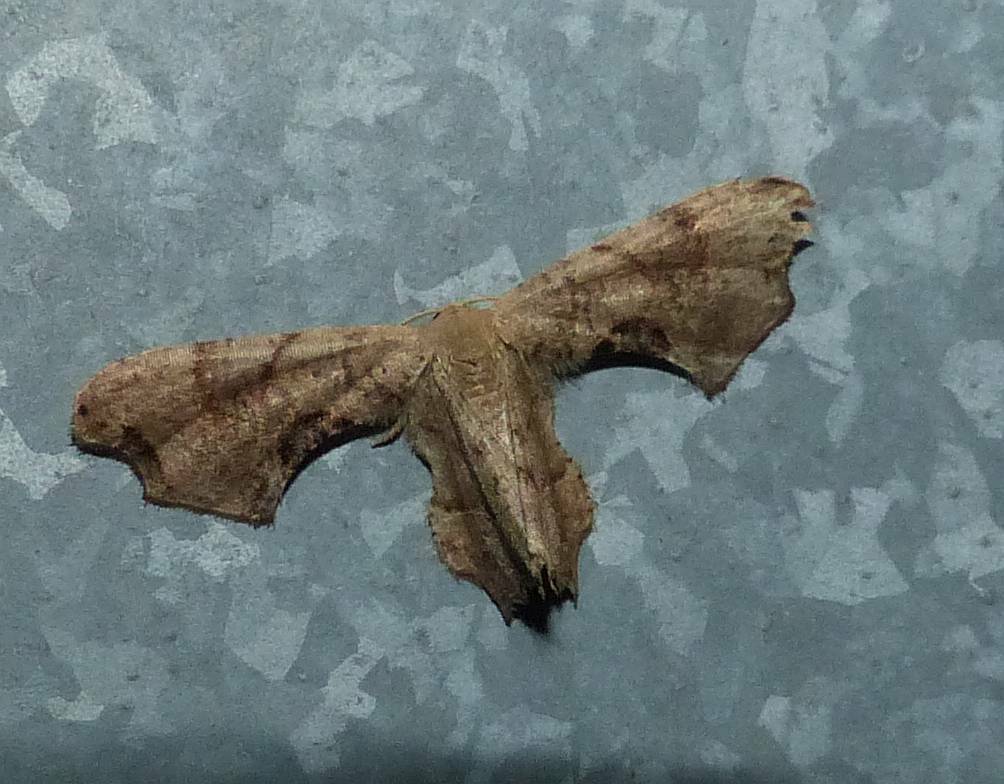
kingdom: Animalia
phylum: Arthropoda
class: Insecta
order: Lepidoptera
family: Uraniidae
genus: Epiplema
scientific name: Epiplema Calledapteryx dryopterata
